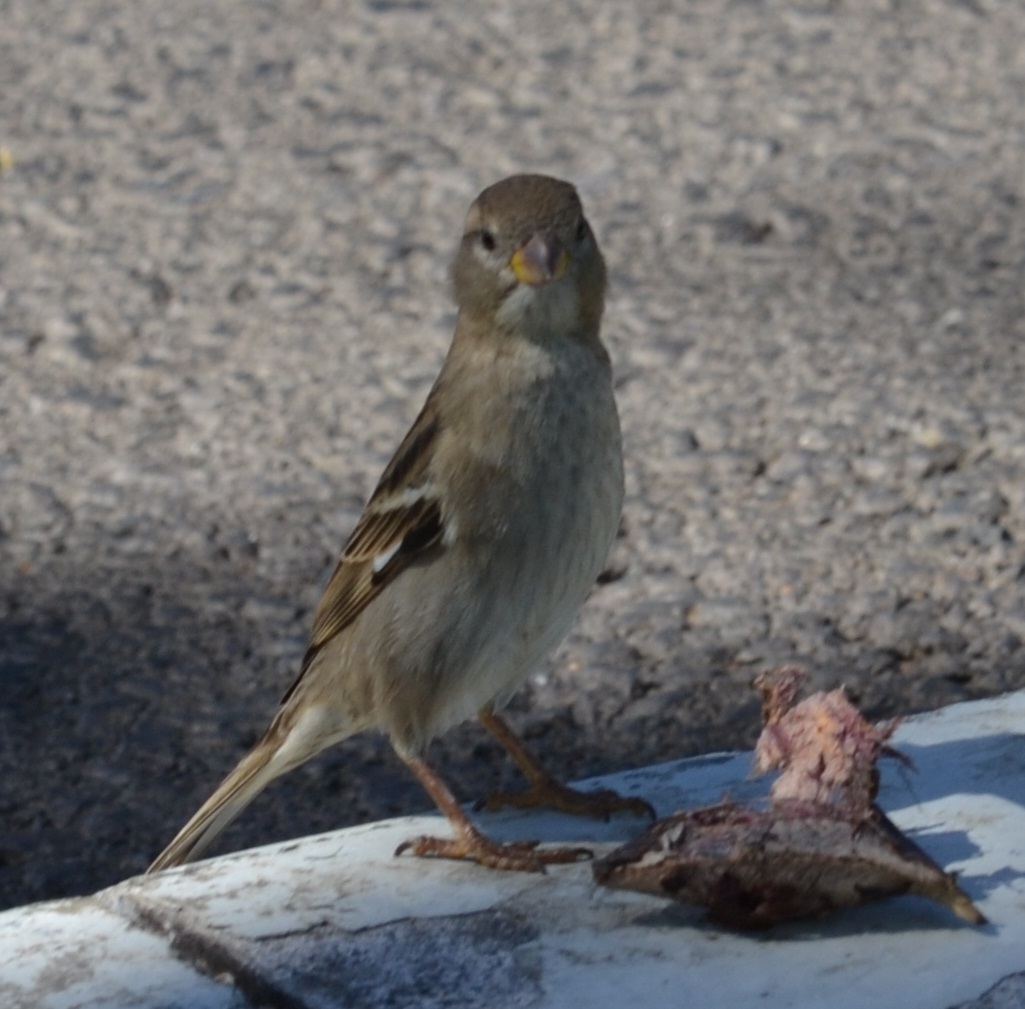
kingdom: Animalia
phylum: Chordata
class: Aves
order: Passeriformes
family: Passeridae
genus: Passer
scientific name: Passer domesticus
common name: House sparrow
